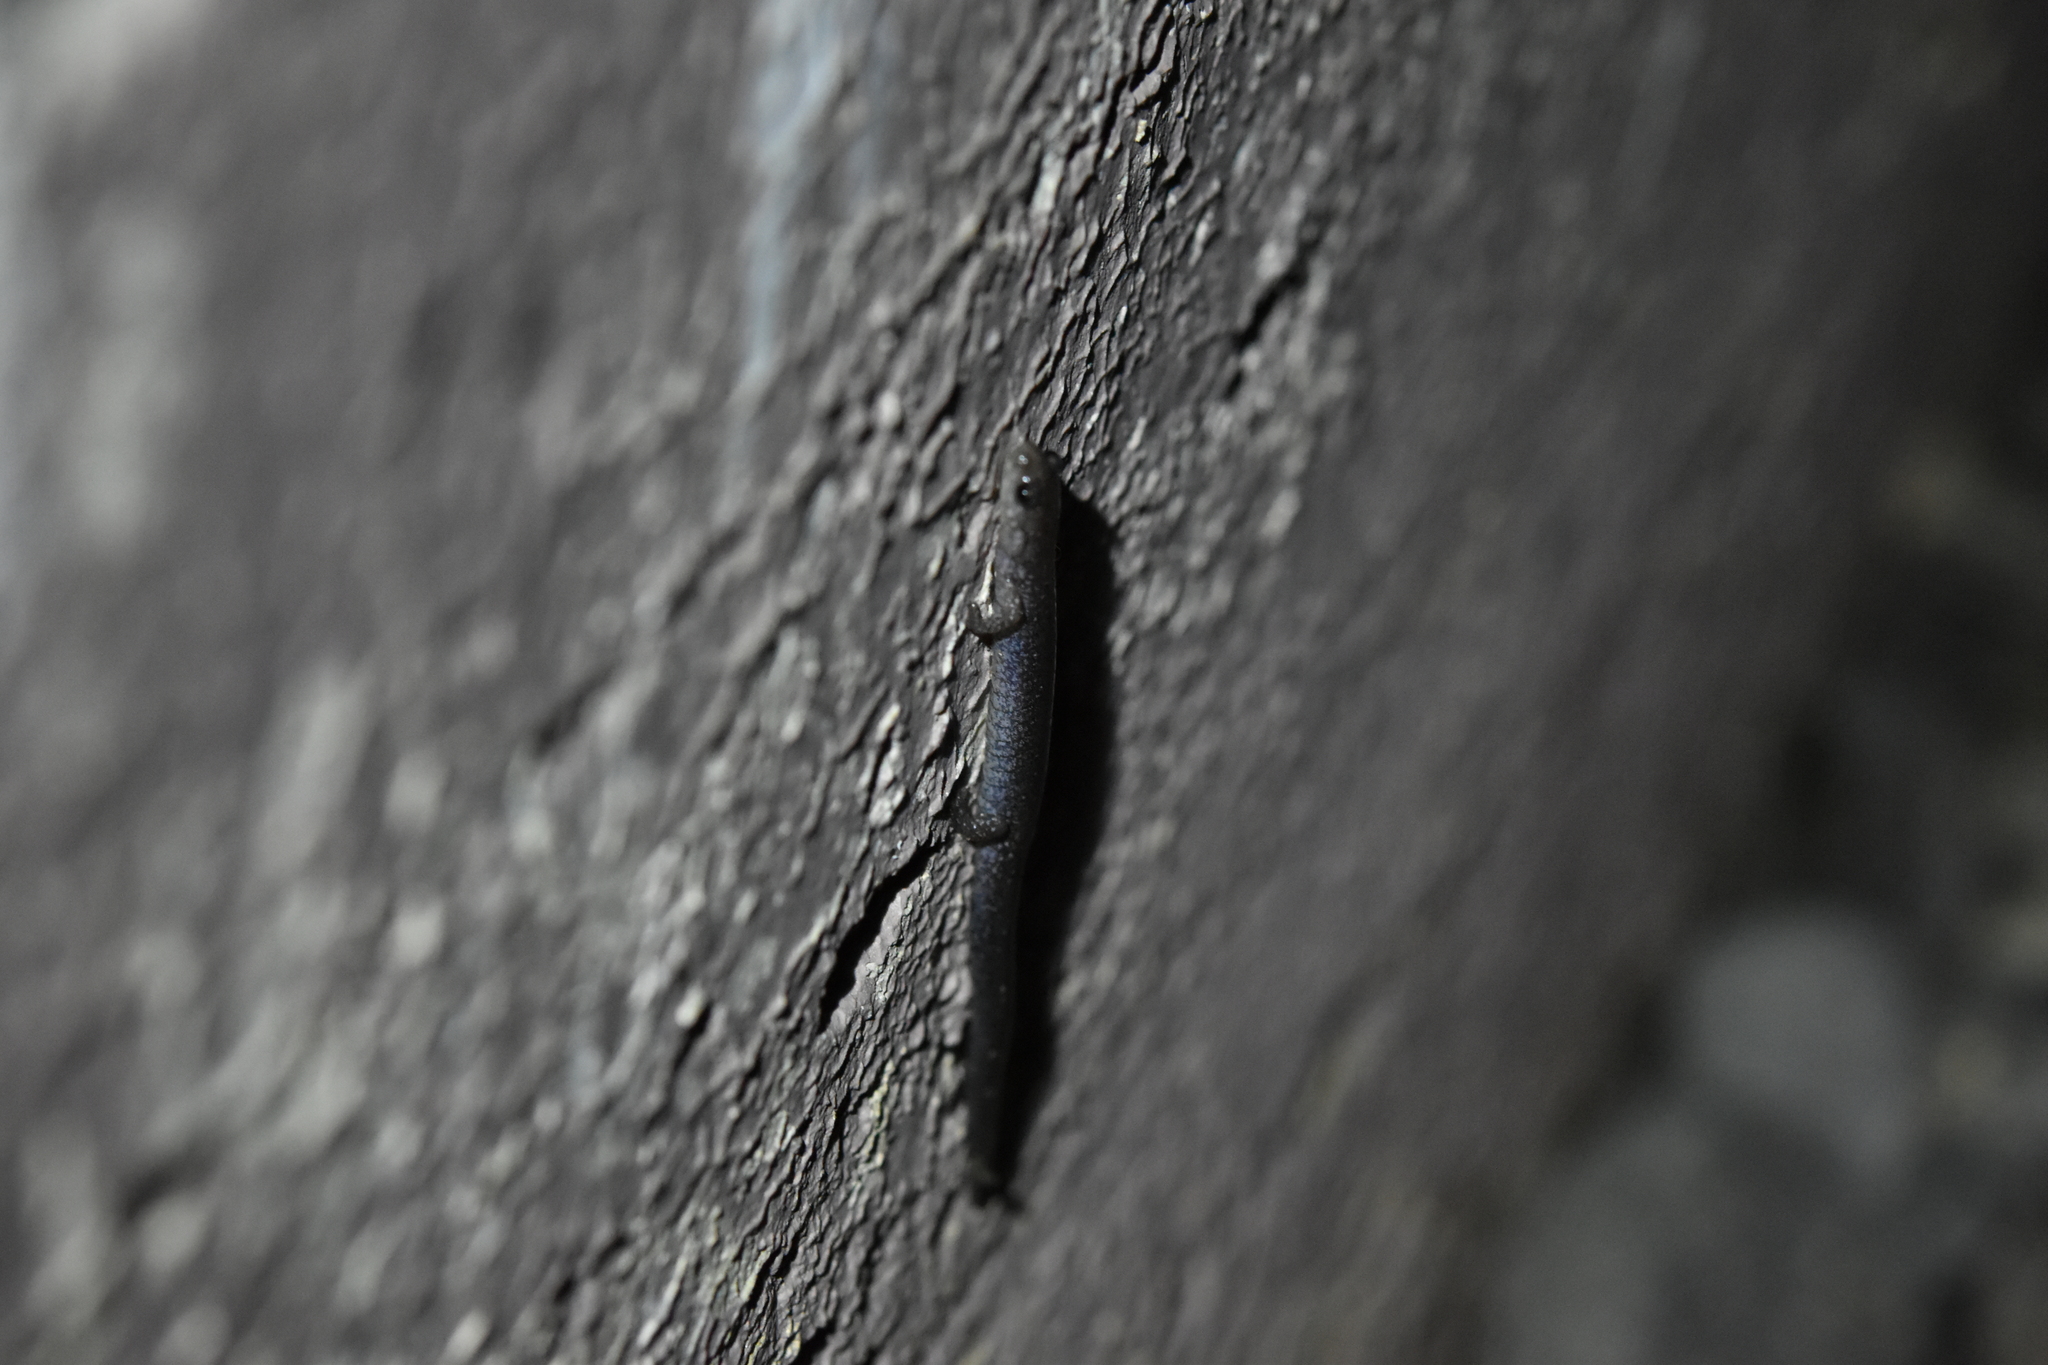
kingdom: Animalia
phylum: Chordata
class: Amphibia
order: Caudata
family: Plethodontidae
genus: Plethodon
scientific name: Plethodon cinereus
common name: Redback salamander
